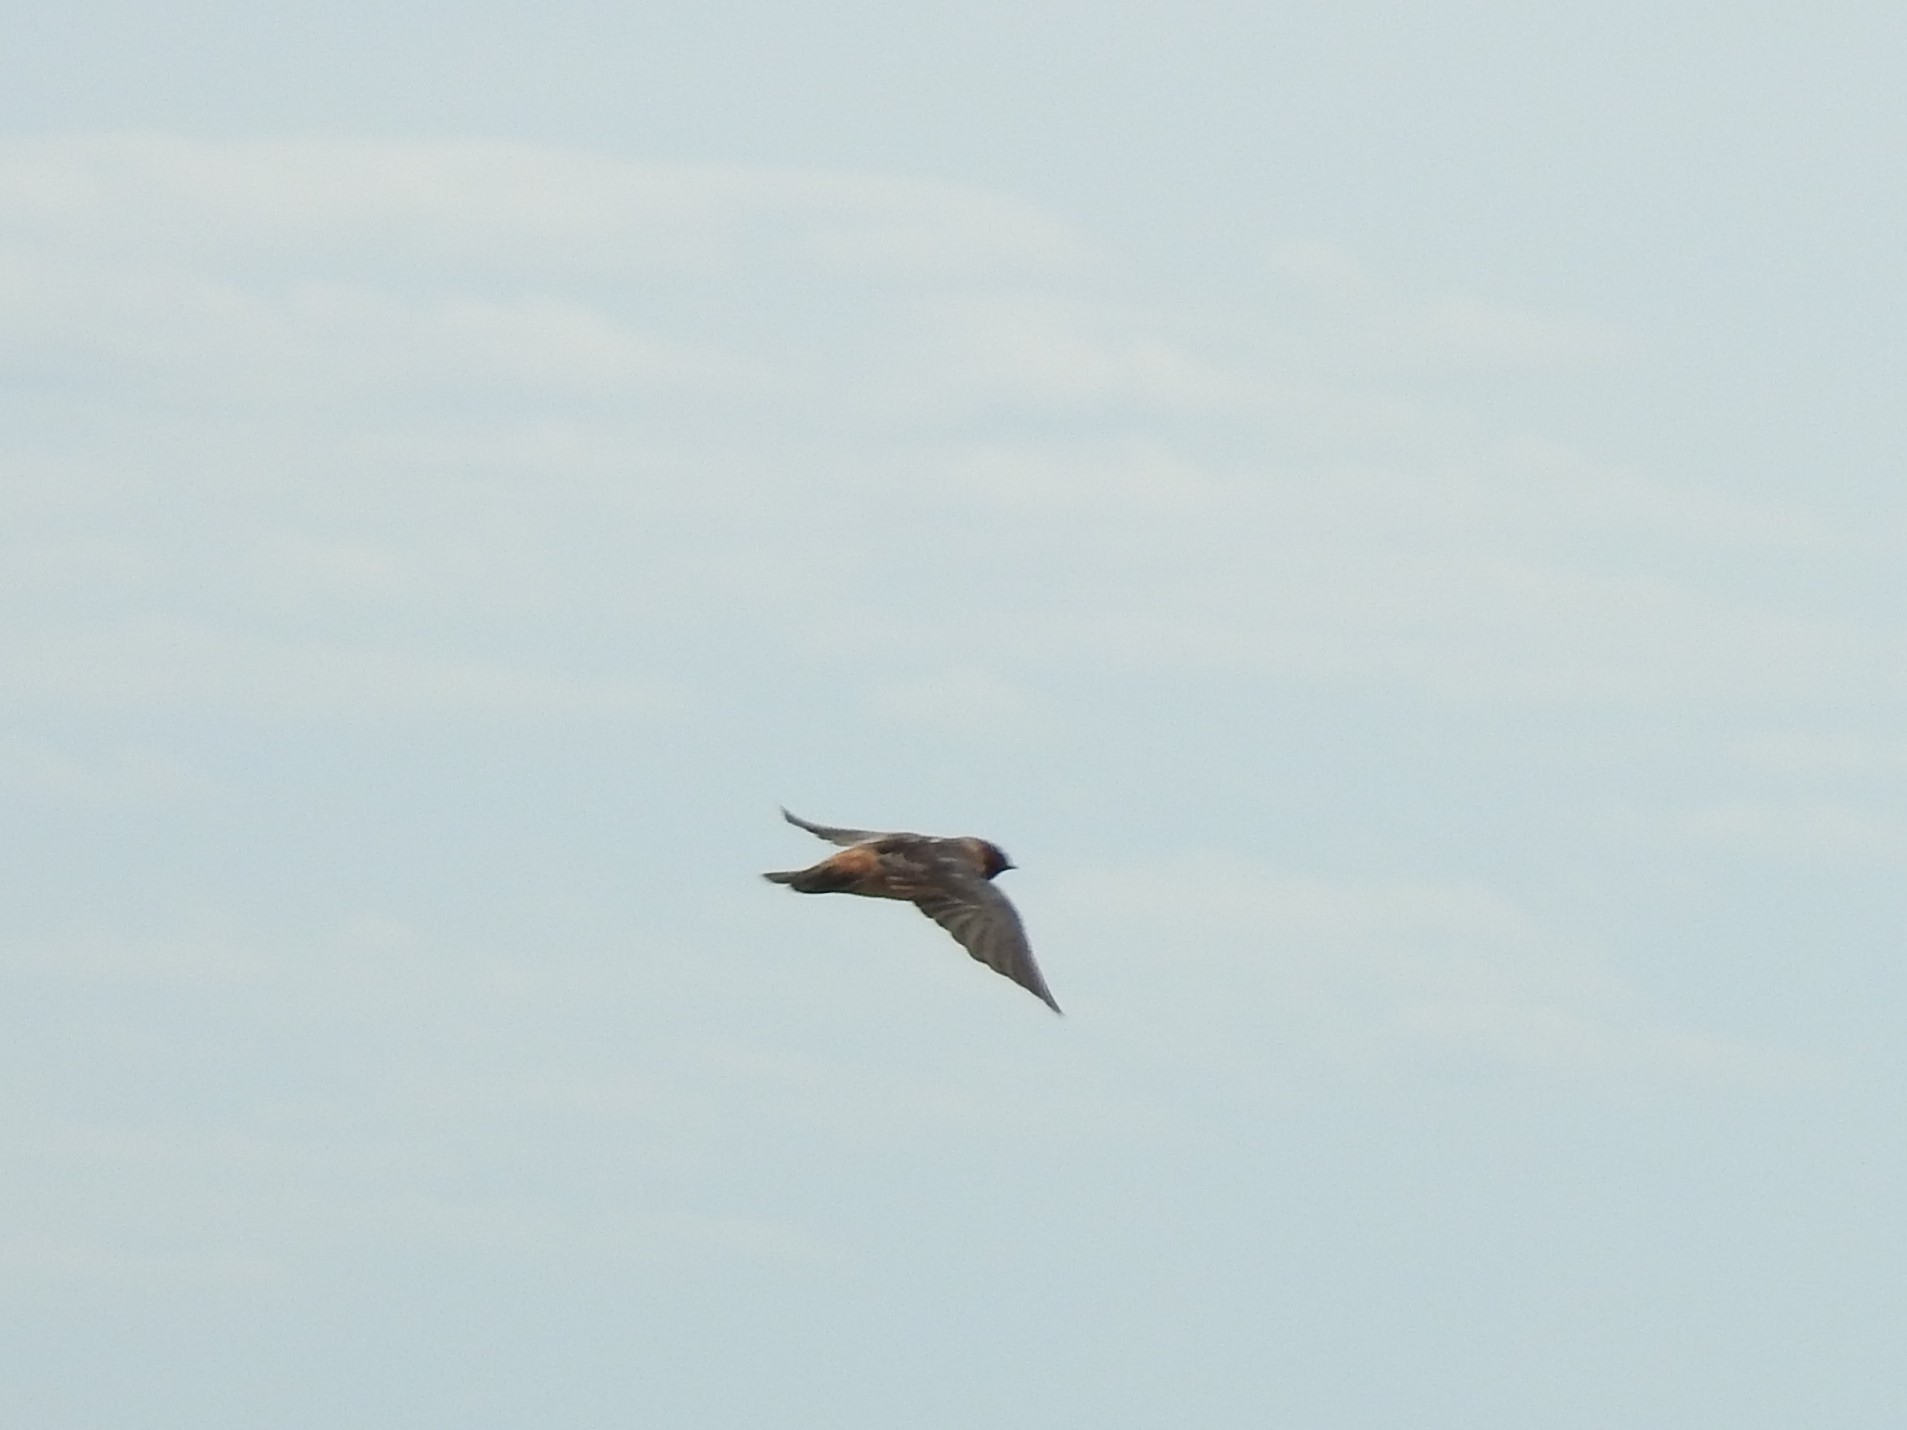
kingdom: Animalia
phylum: Chordata
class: Aves
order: Passeriformes
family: Hirundinidae
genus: Petrochelidon
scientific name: Petrochelidon pyrrhonota
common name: American cliff swallow
